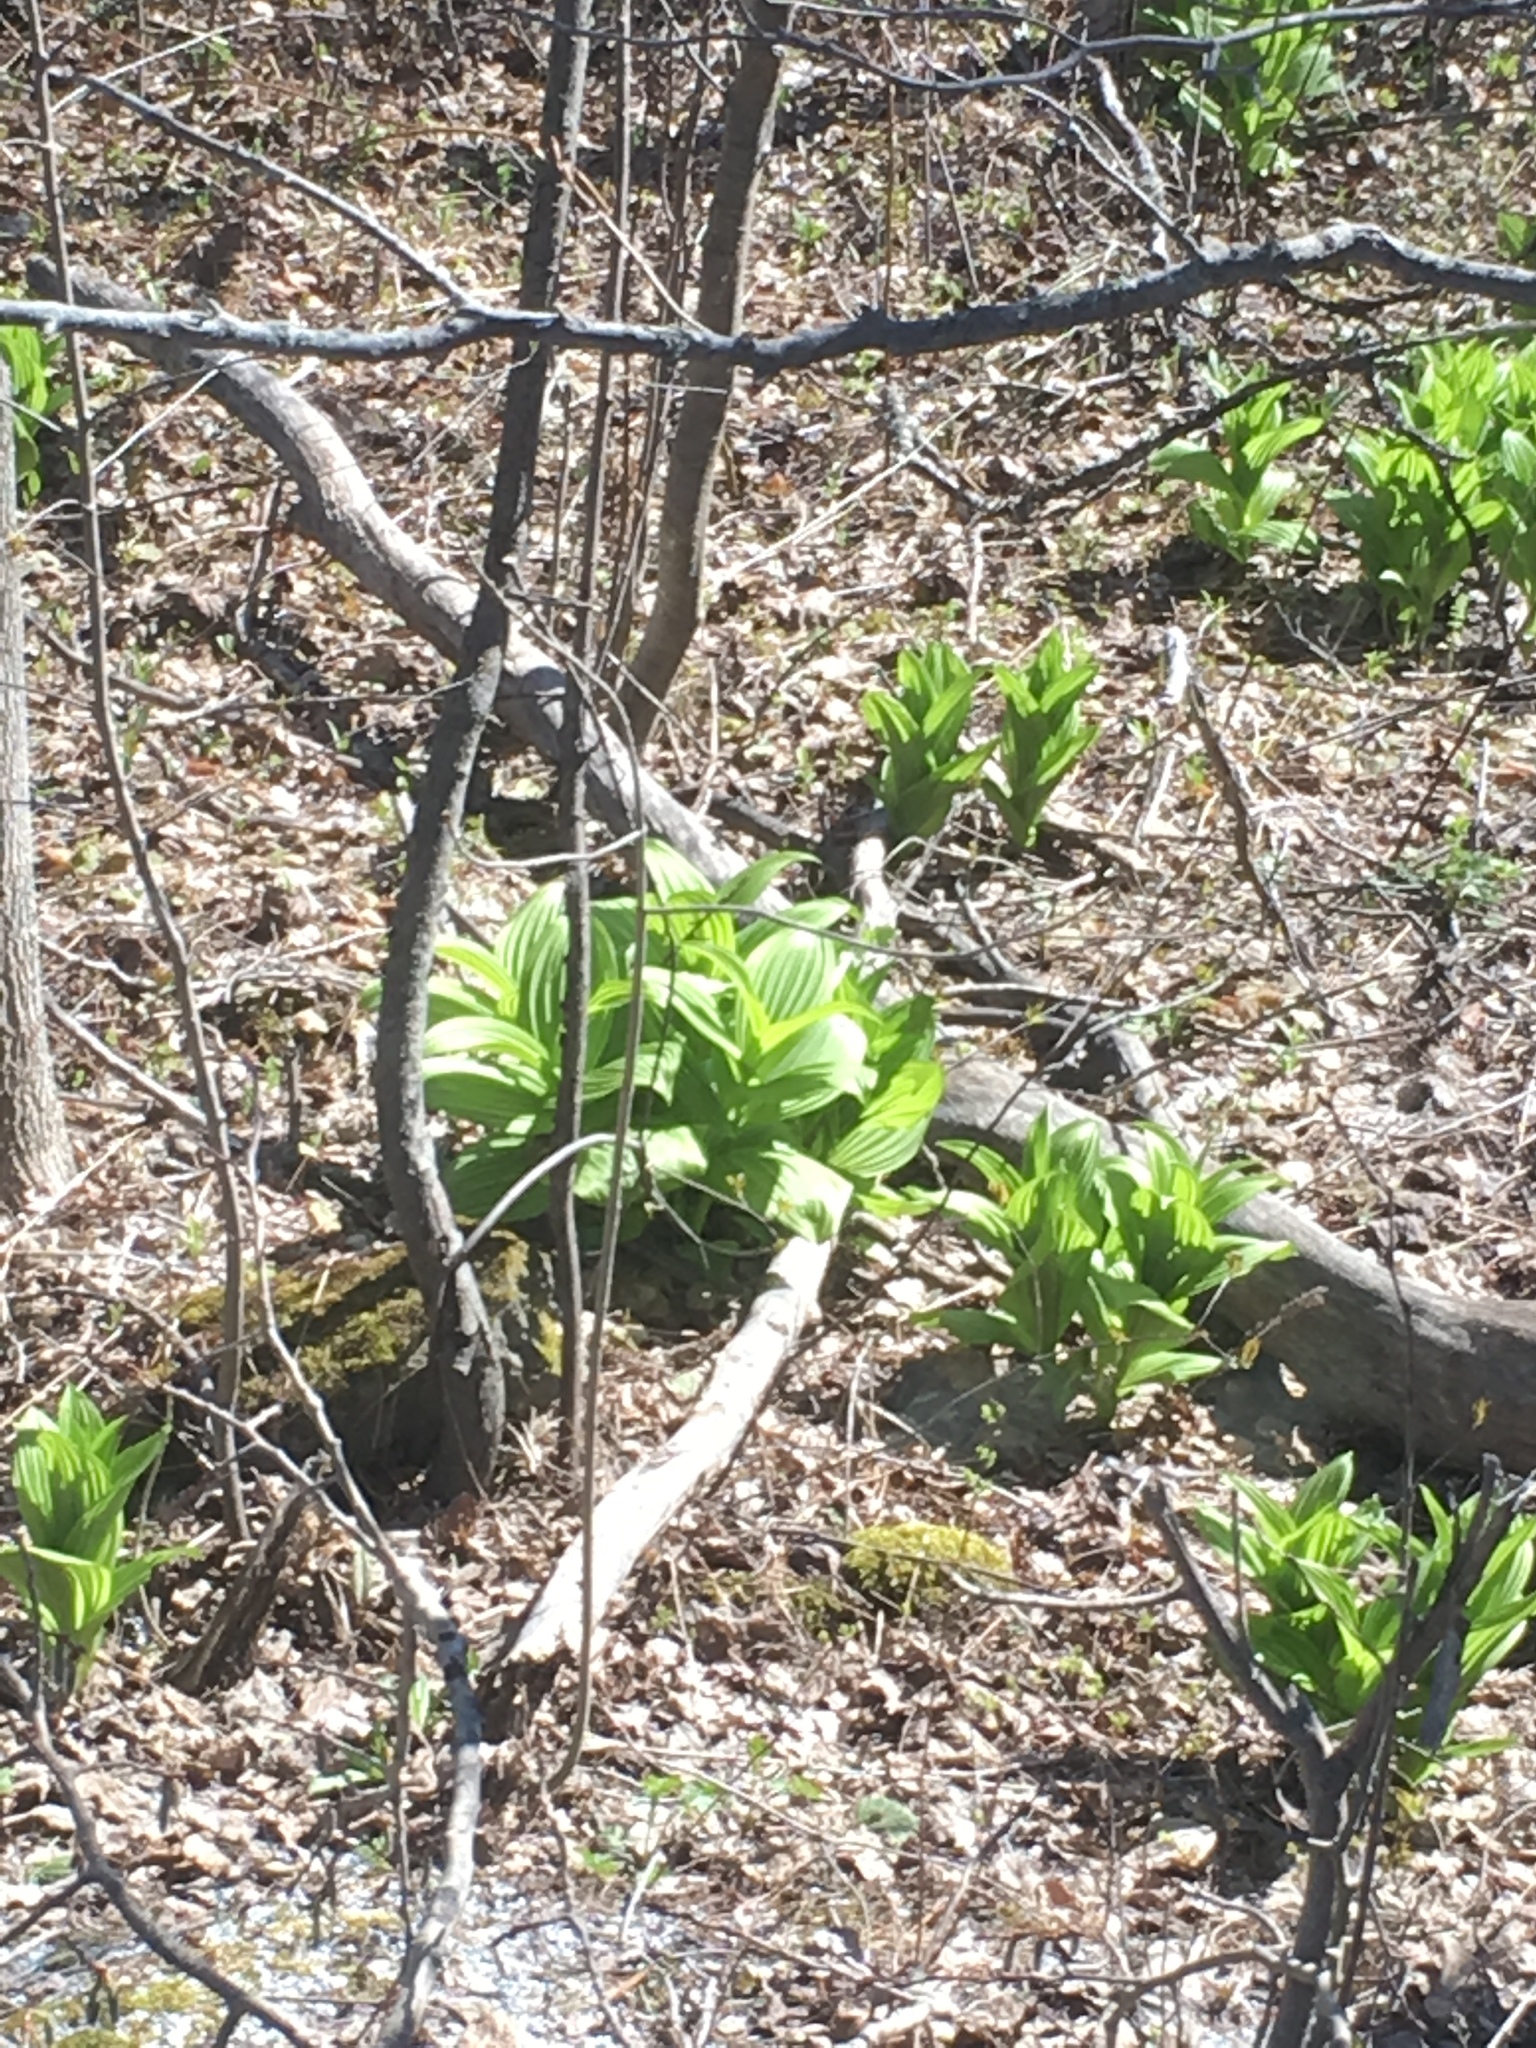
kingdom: Plantae
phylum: Tracheophyta
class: Liliopsida
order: Liliales
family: Melanthiaceae
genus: Veratrum
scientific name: Veratrum viride
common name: American false hellebore
